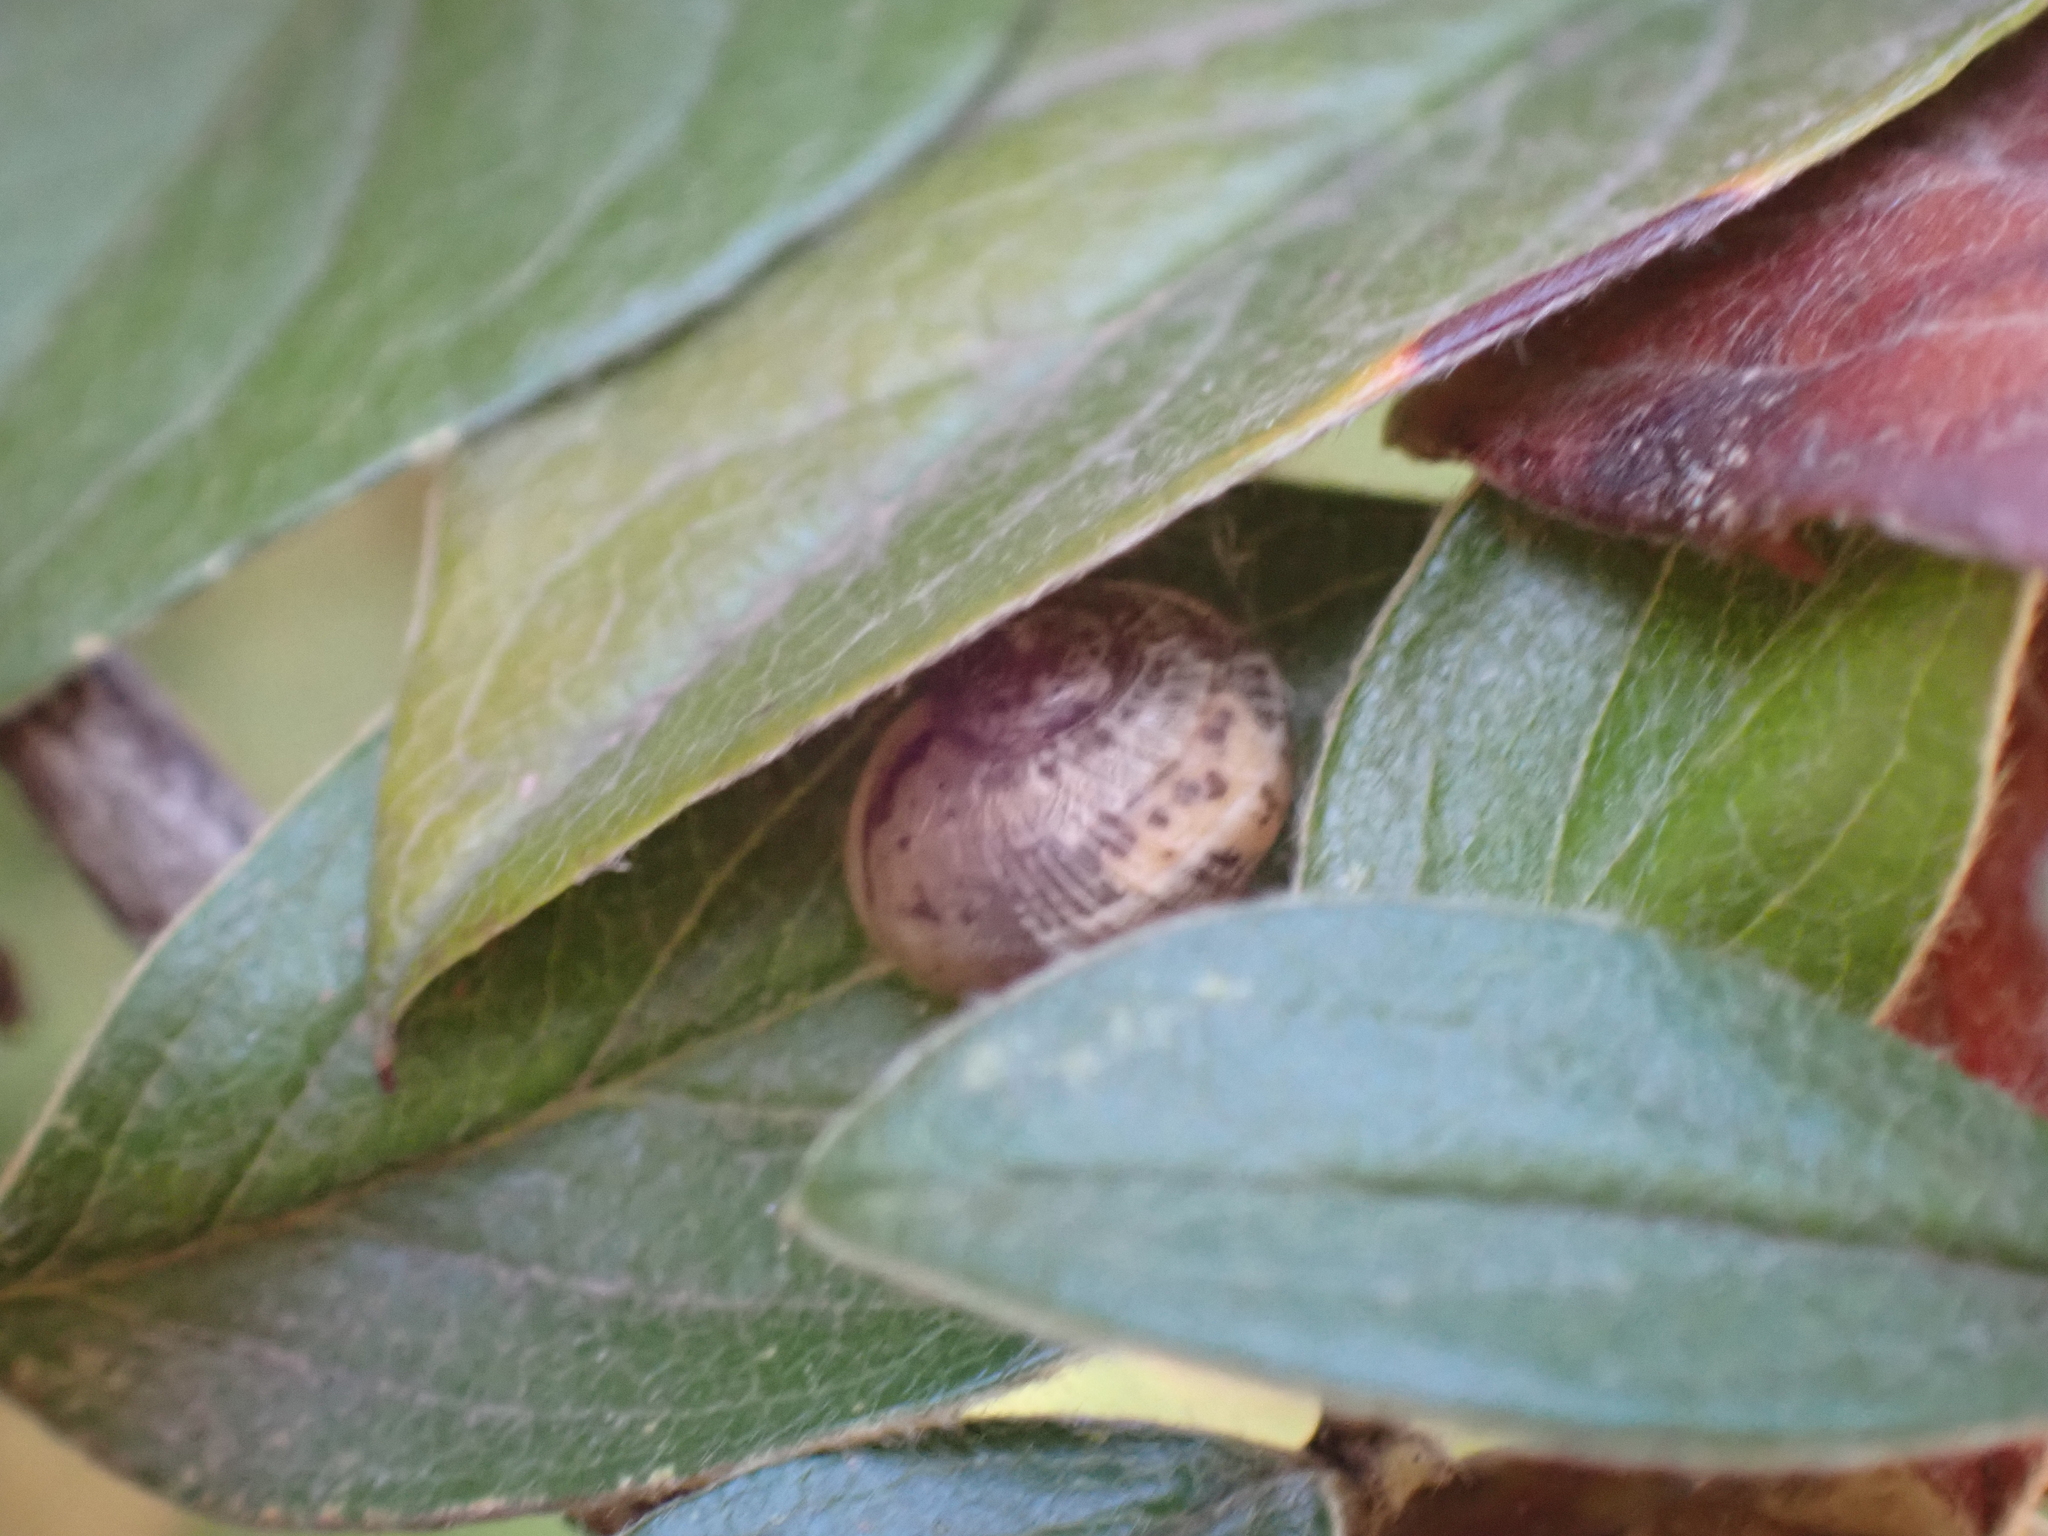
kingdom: Animalia
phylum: Mollusca
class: Gastropoda
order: Stylommatophora
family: Helicidae
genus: Cornu
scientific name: Cornu aspersum
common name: Brown garden snail
